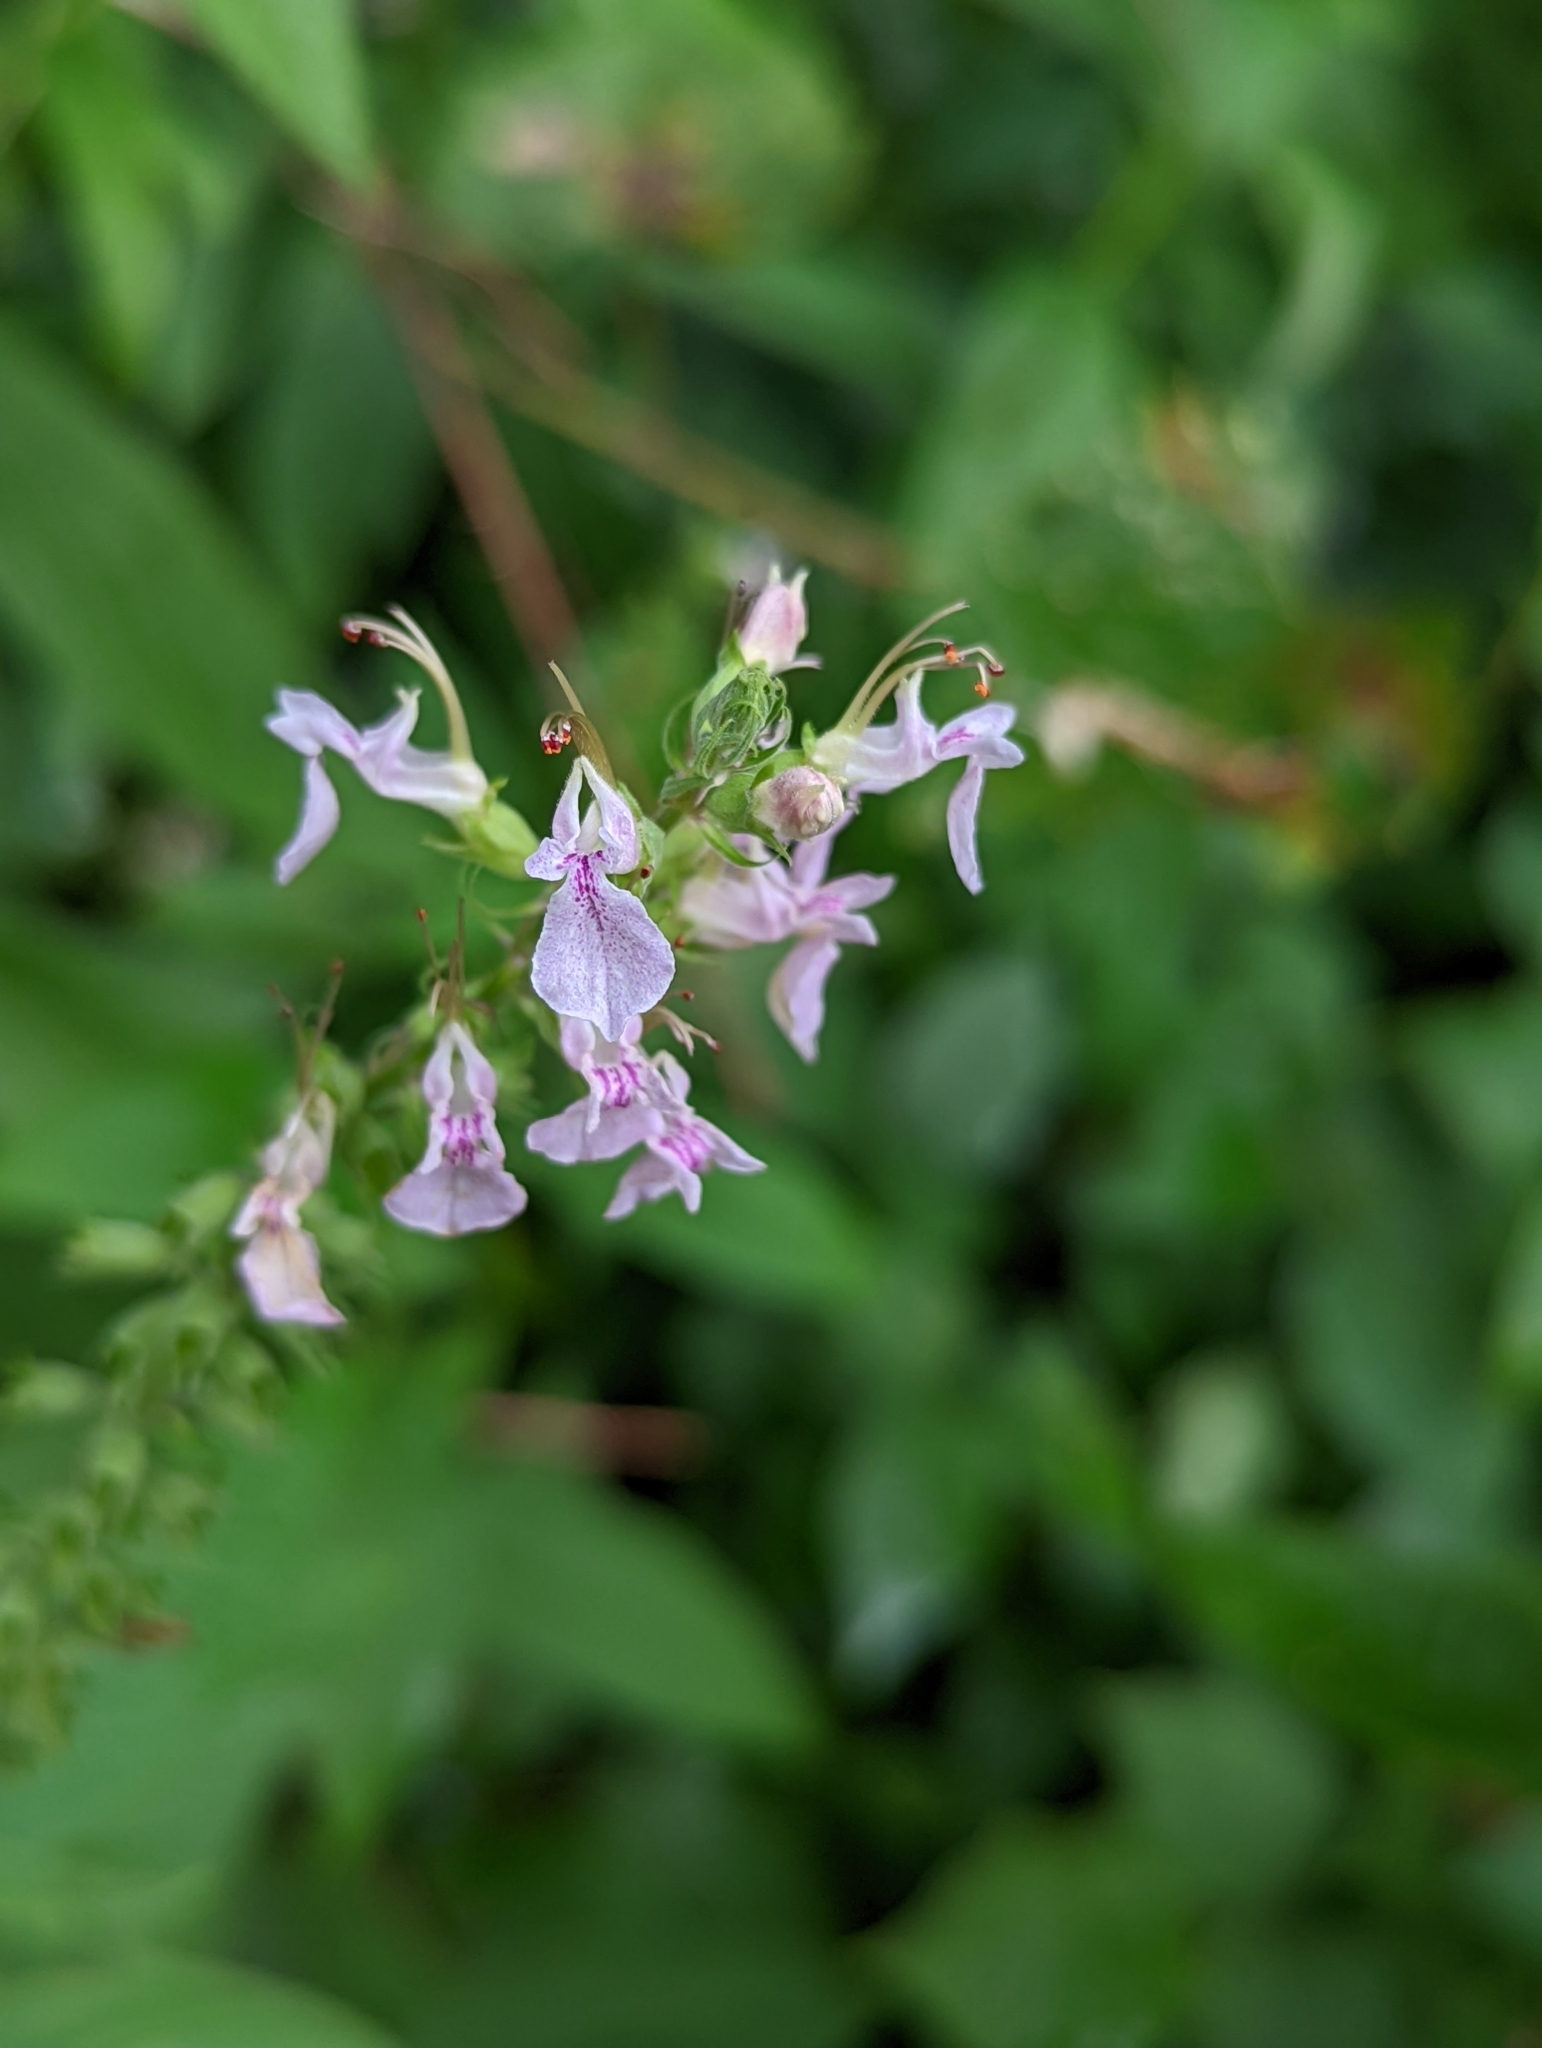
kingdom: Plantae
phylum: Tracheophyta
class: Magnoliopsida
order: Lamiales
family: Lamiaceae
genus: Teucrium
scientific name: Teucrium canadense
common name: American germander
